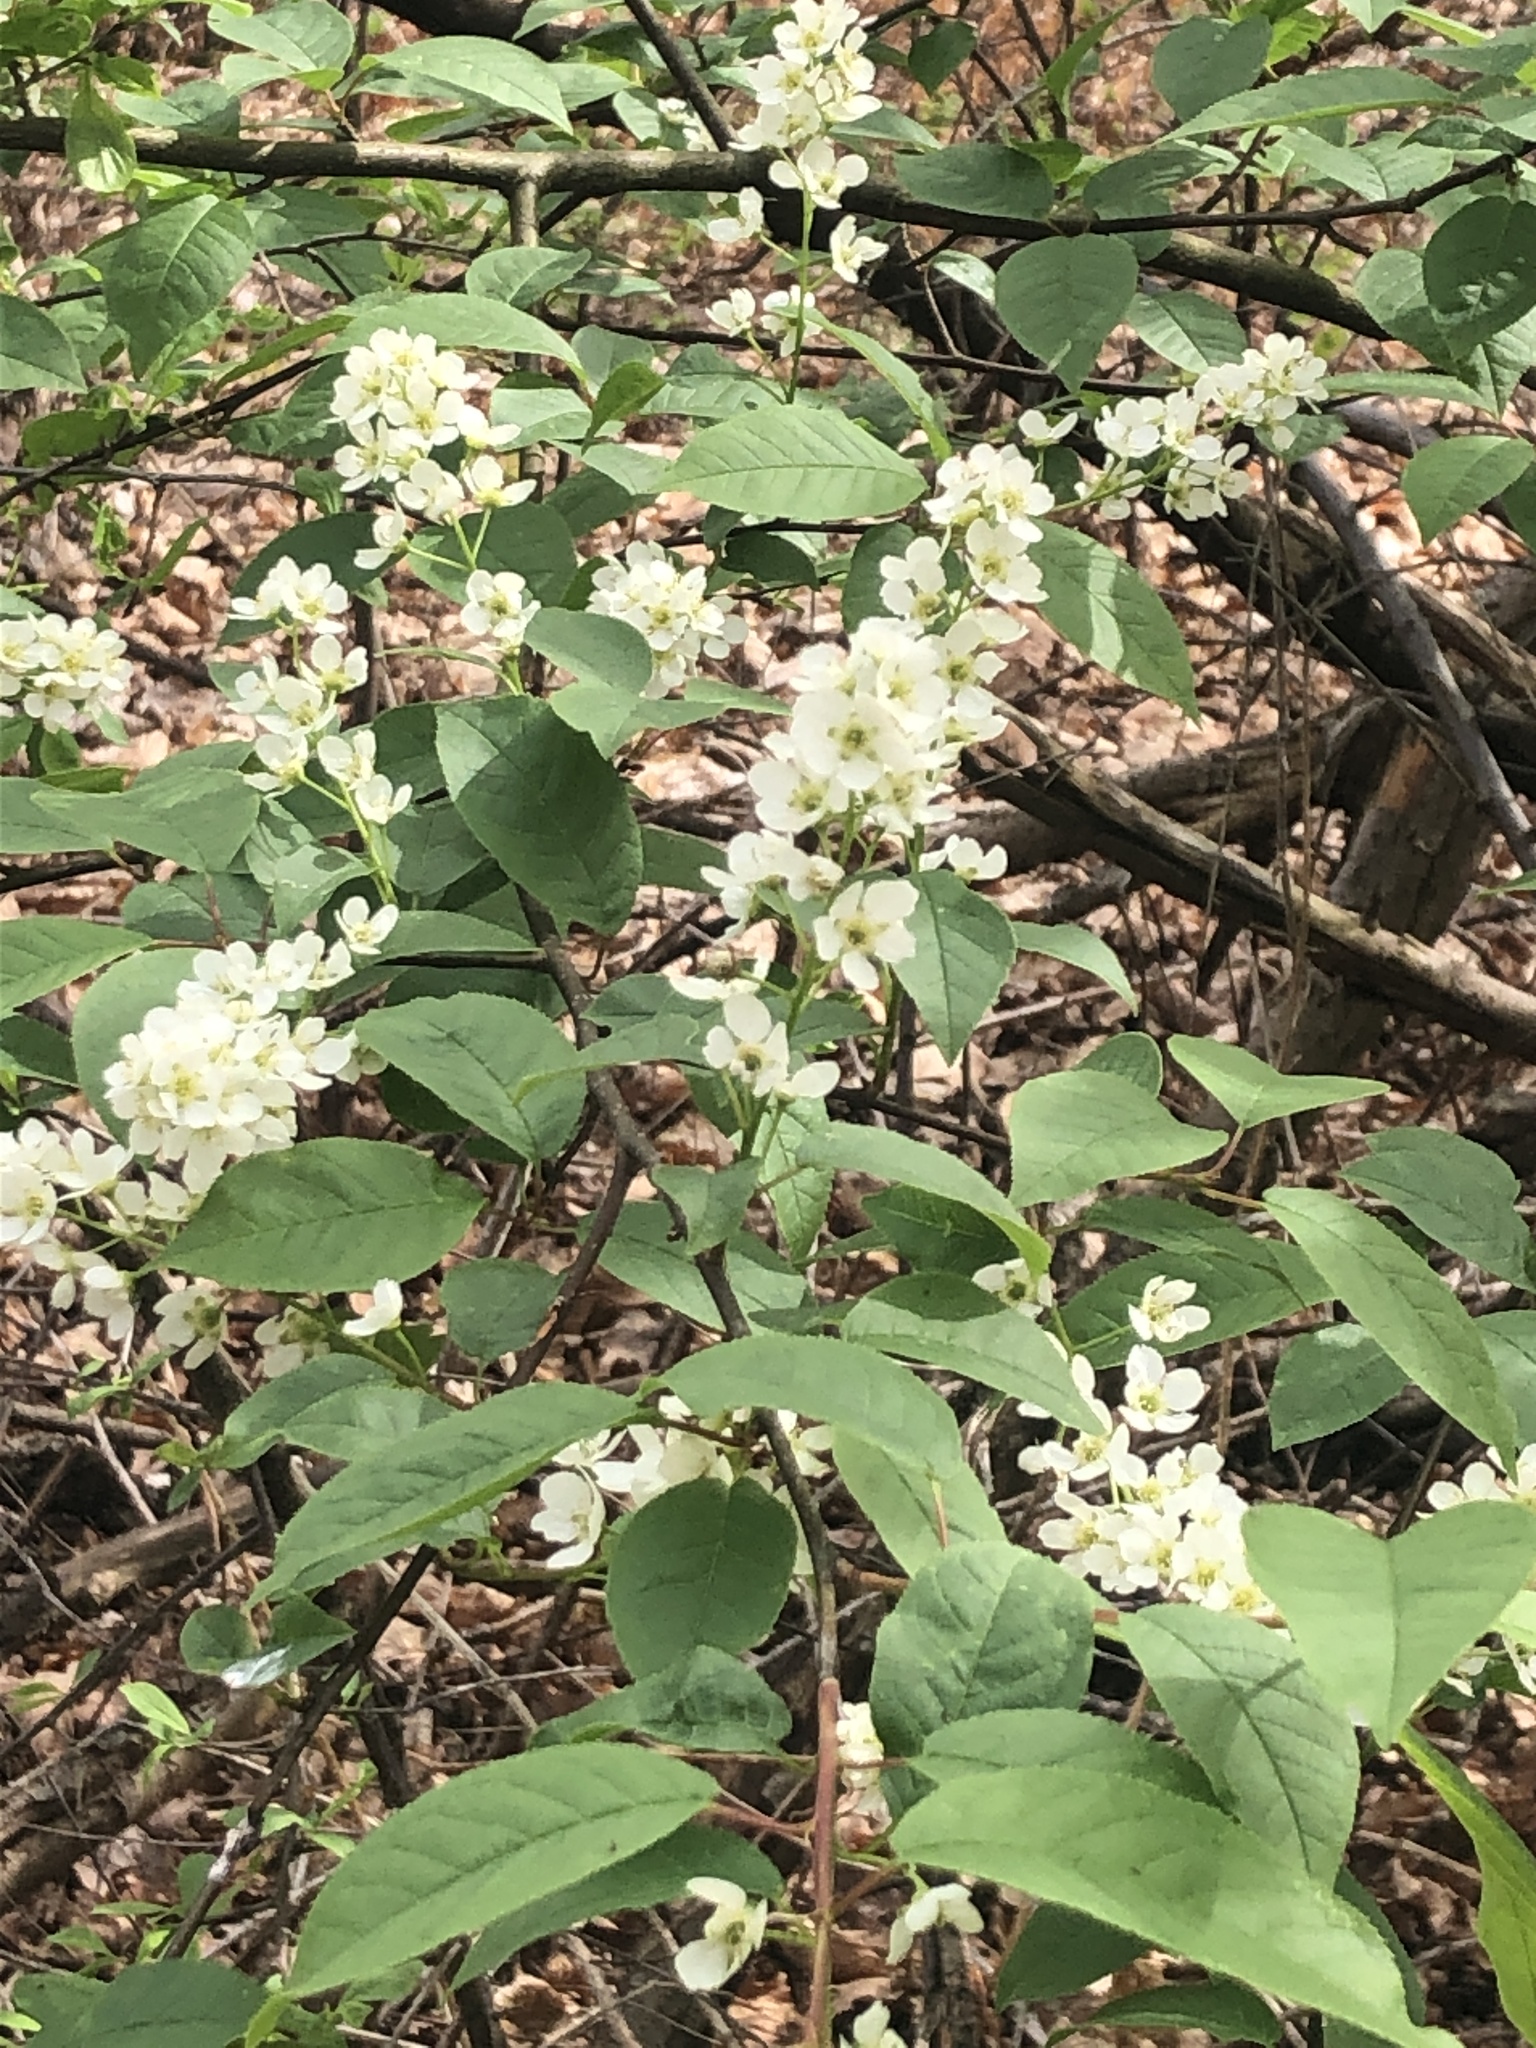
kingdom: Plantae
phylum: Tracheophyta
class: Magnoliopsida
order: Rosales
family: Rosaceae
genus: Prunus
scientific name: Prunus padus
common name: Bird cherry
